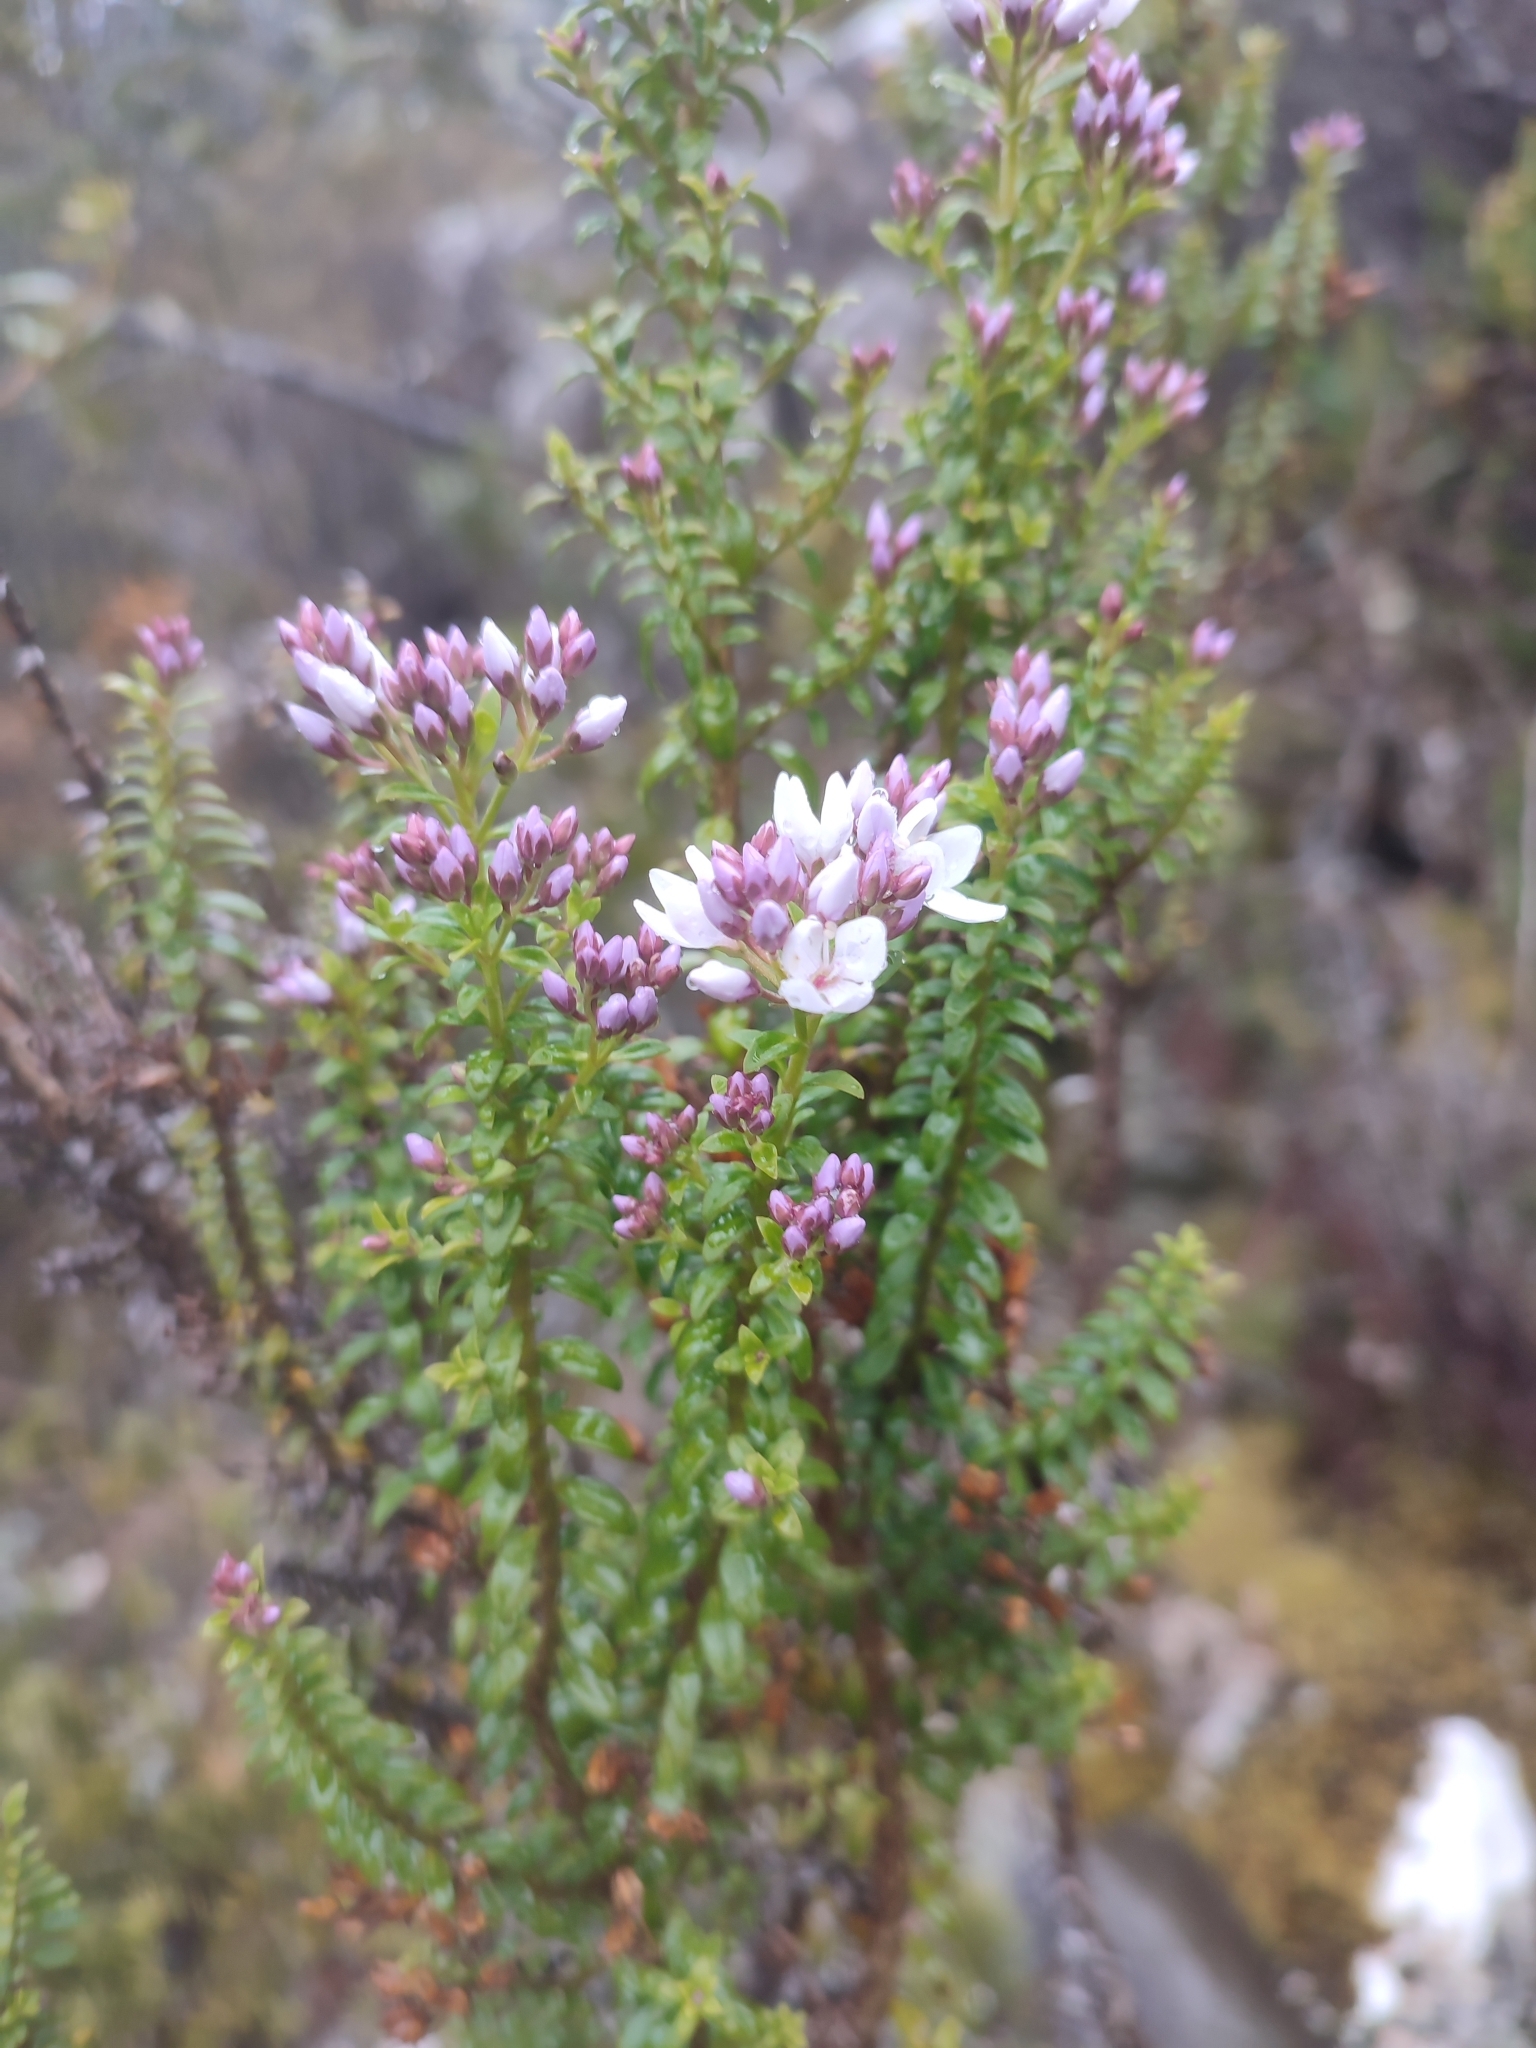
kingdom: Plantae
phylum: Tracheophyta
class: Magnoliopsida
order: Lamiales
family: Plantaginaceae
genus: Veronica
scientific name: Veronica formosa
